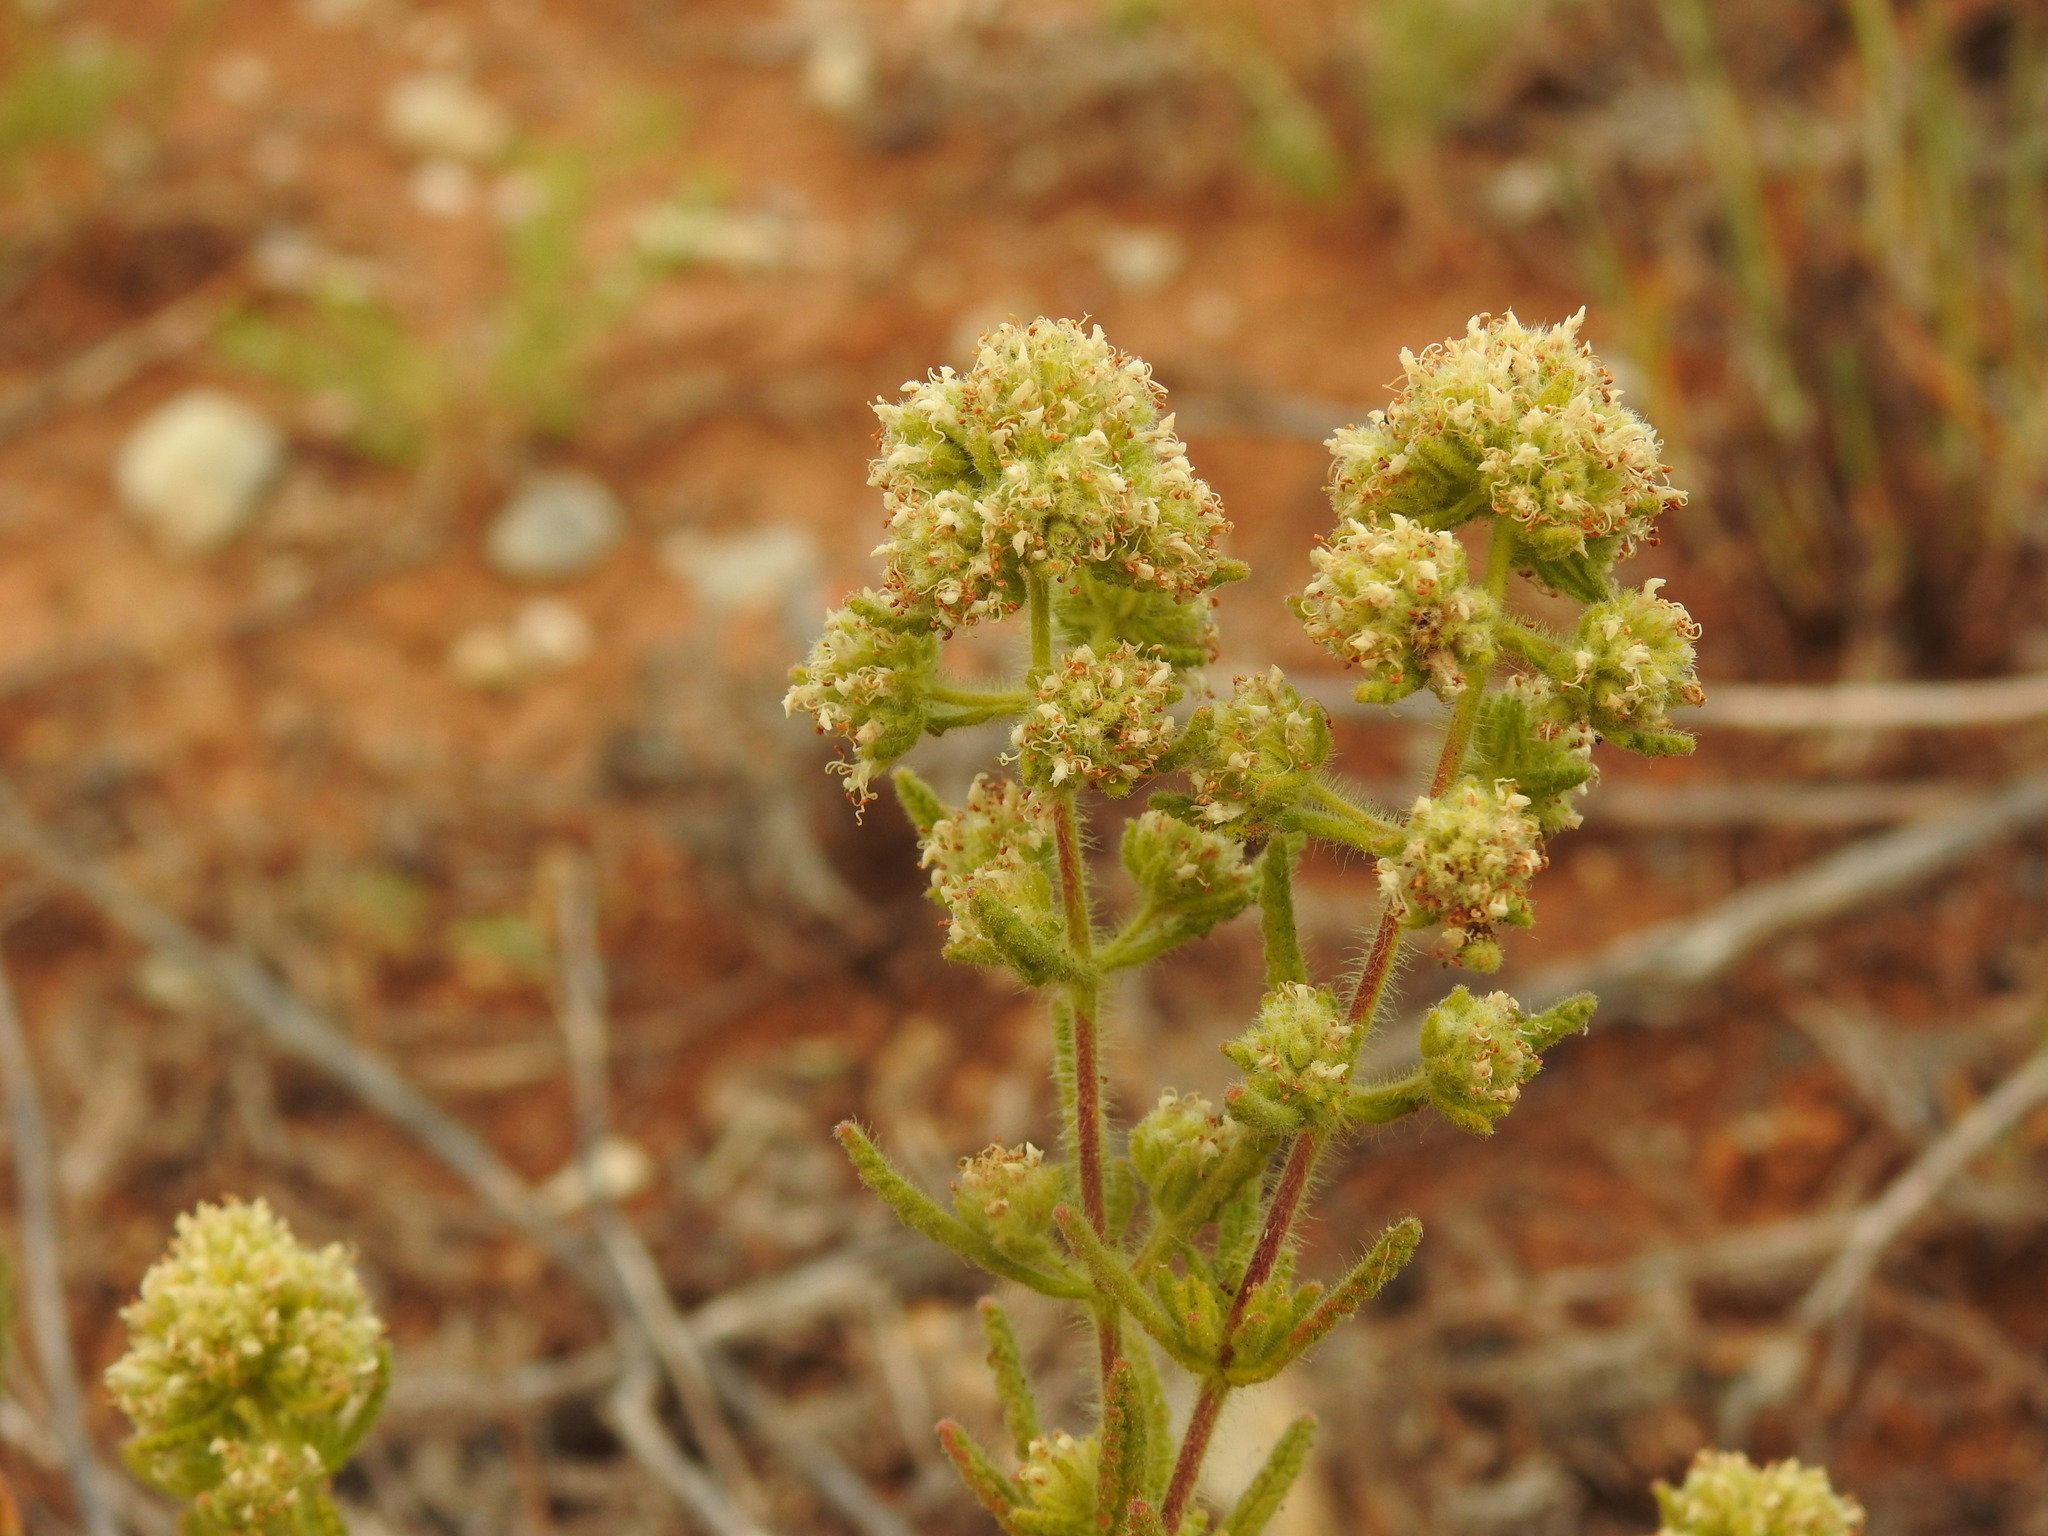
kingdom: Plantae
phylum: Tracheophyta
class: Magnoliopsida
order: Lamiales
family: Lamiaceae
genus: Teucrium
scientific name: Teucrium haenseleri
